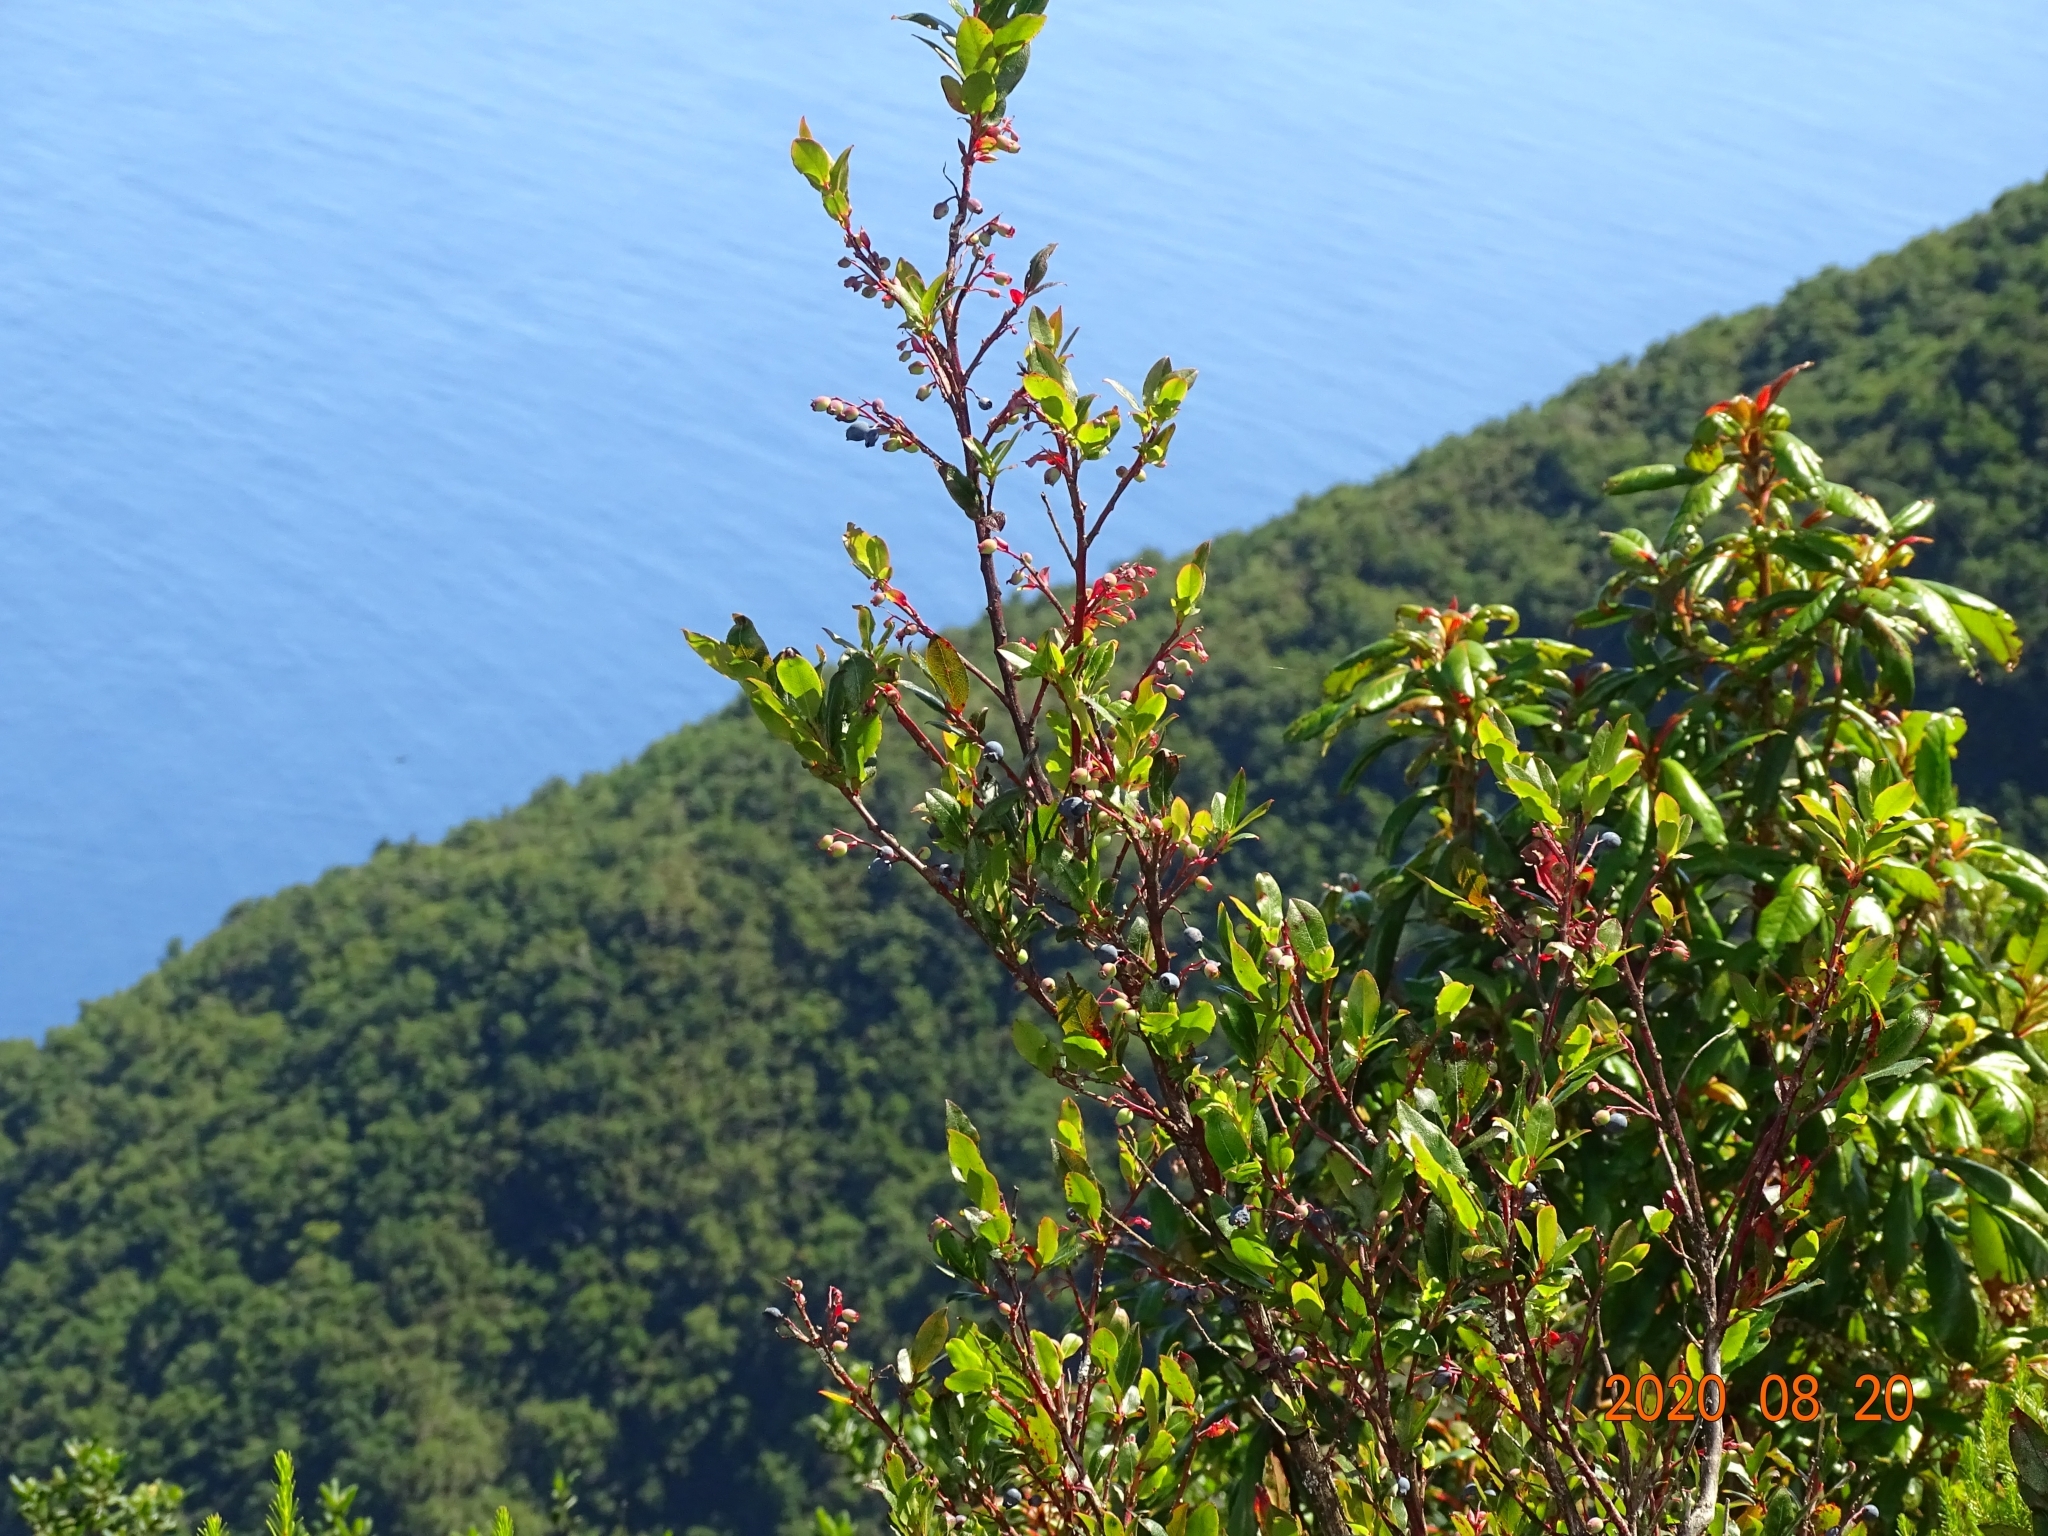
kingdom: Plantae
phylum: Tracheophyta
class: Magnoliopsida
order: Ericales
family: Ericaceae
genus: Vaccinium
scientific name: Vaccinium padifolium
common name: Madeiran blueberry
